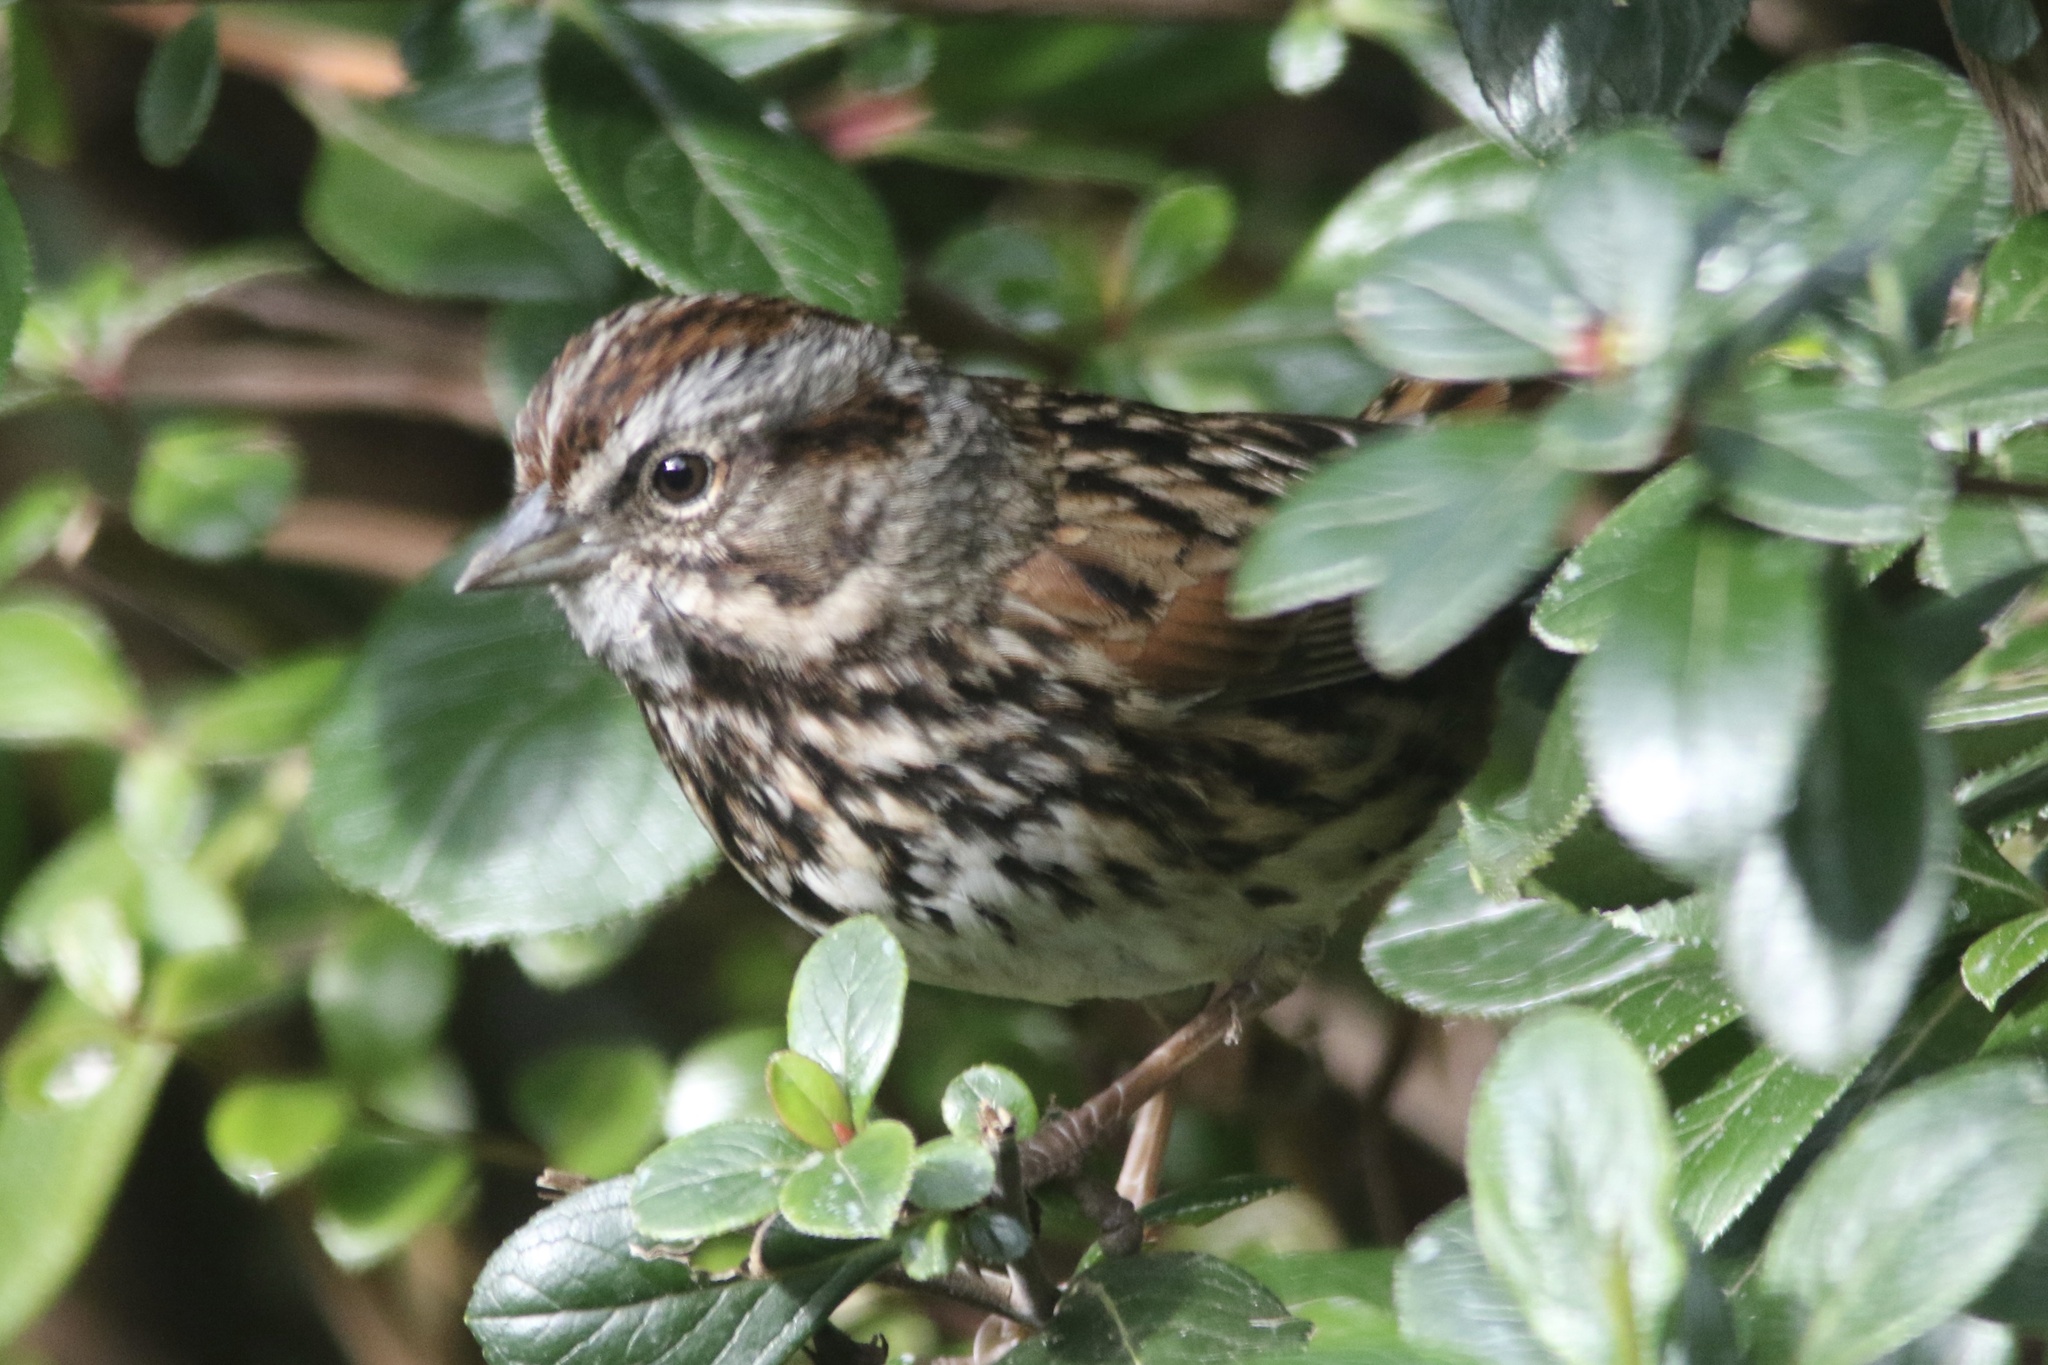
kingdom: Animalia
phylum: Chordata
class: Aves
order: Passeriformes
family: Passerellidae
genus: Melospiza
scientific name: Melospiza melodia
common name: Song sparrow
